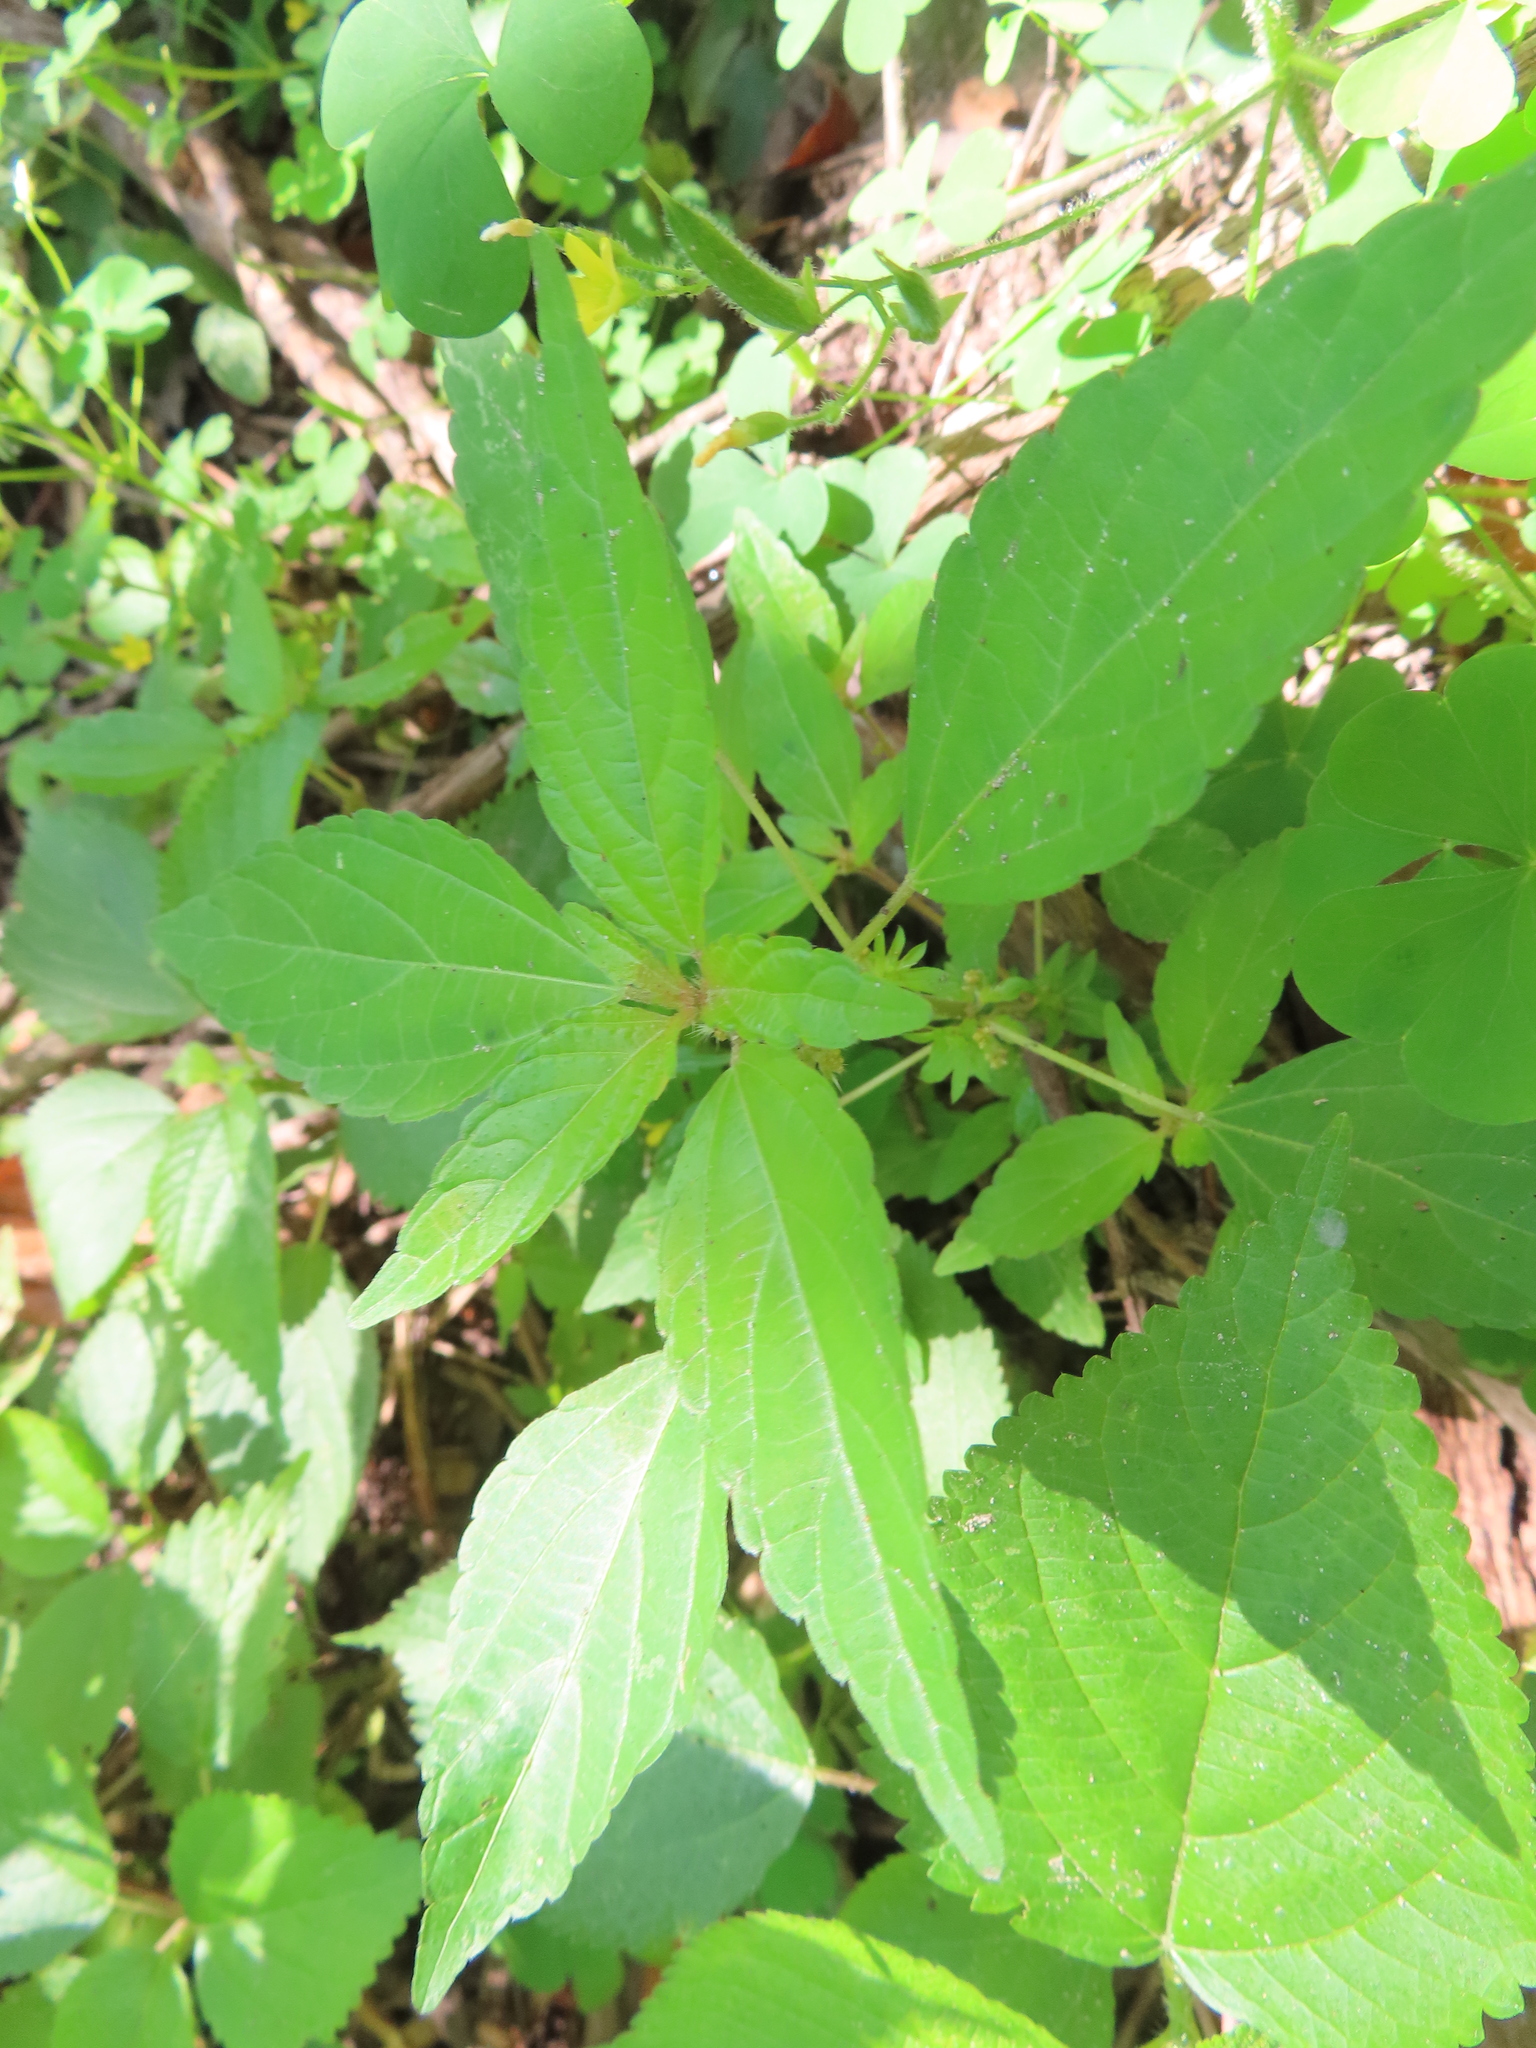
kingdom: Plantae
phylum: Tracheophyta
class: Magnoliopsida
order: Malpighiales
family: Euphorbiaceae
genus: Acalypha
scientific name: Acalypha rhomboidea
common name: Rhombic copperleaf
